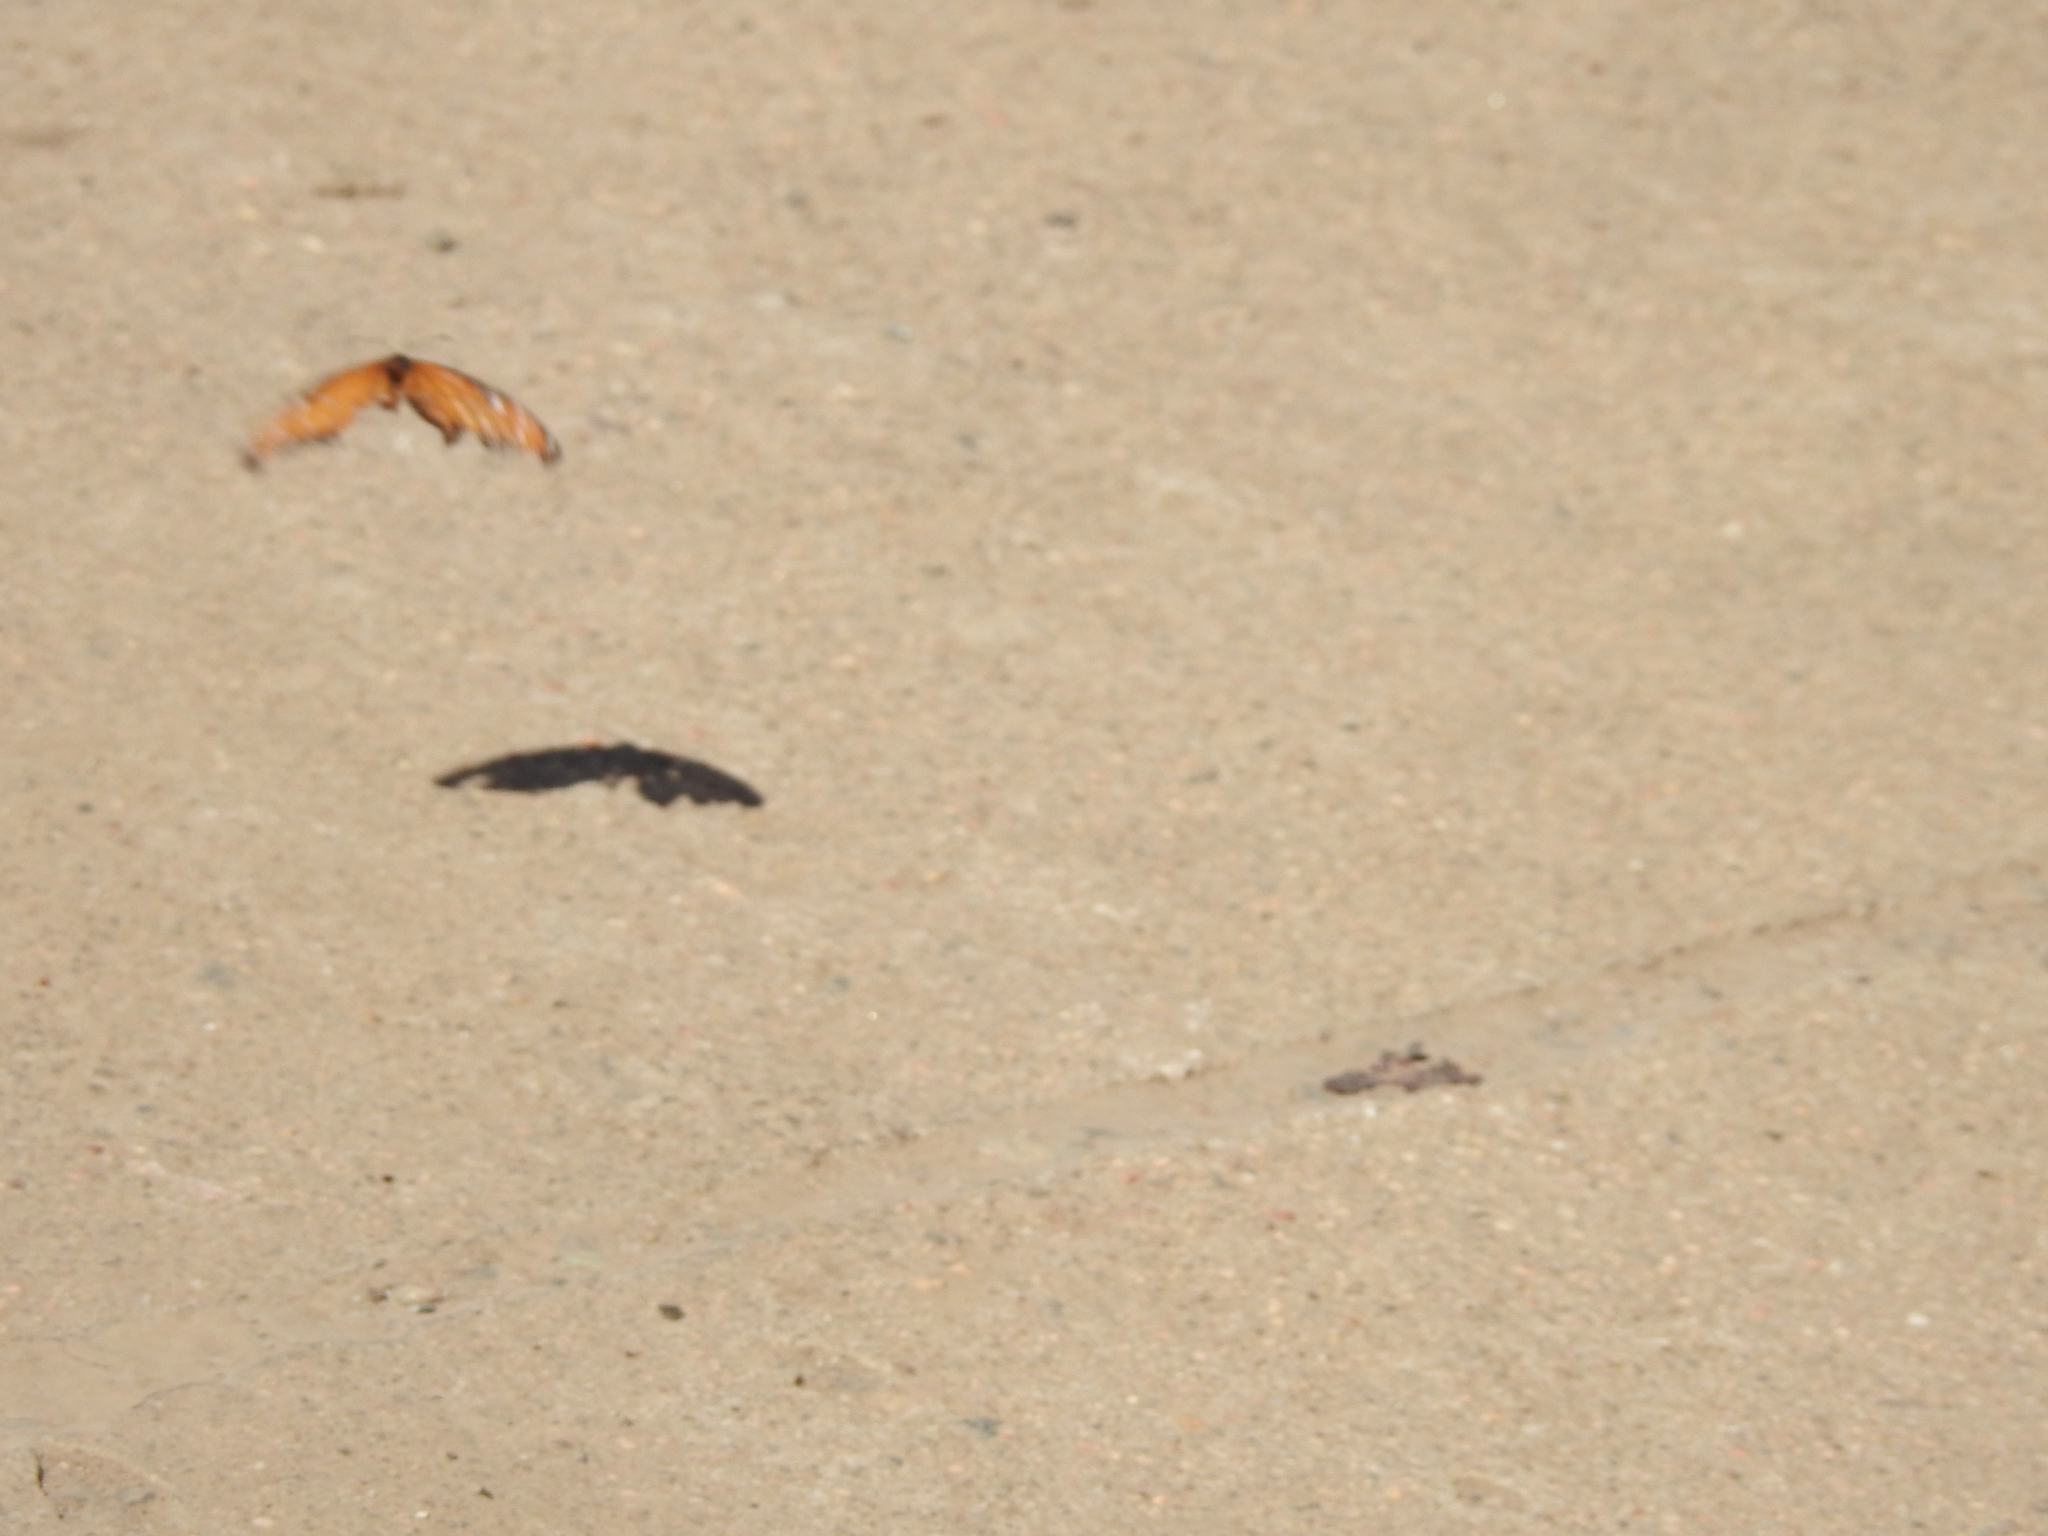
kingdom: Animalia
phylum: Arthropoda
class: Insecta
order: Lepidoptera
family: Nymphalidae
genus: Danaus
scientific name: Danaus gilippus
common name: Queen
